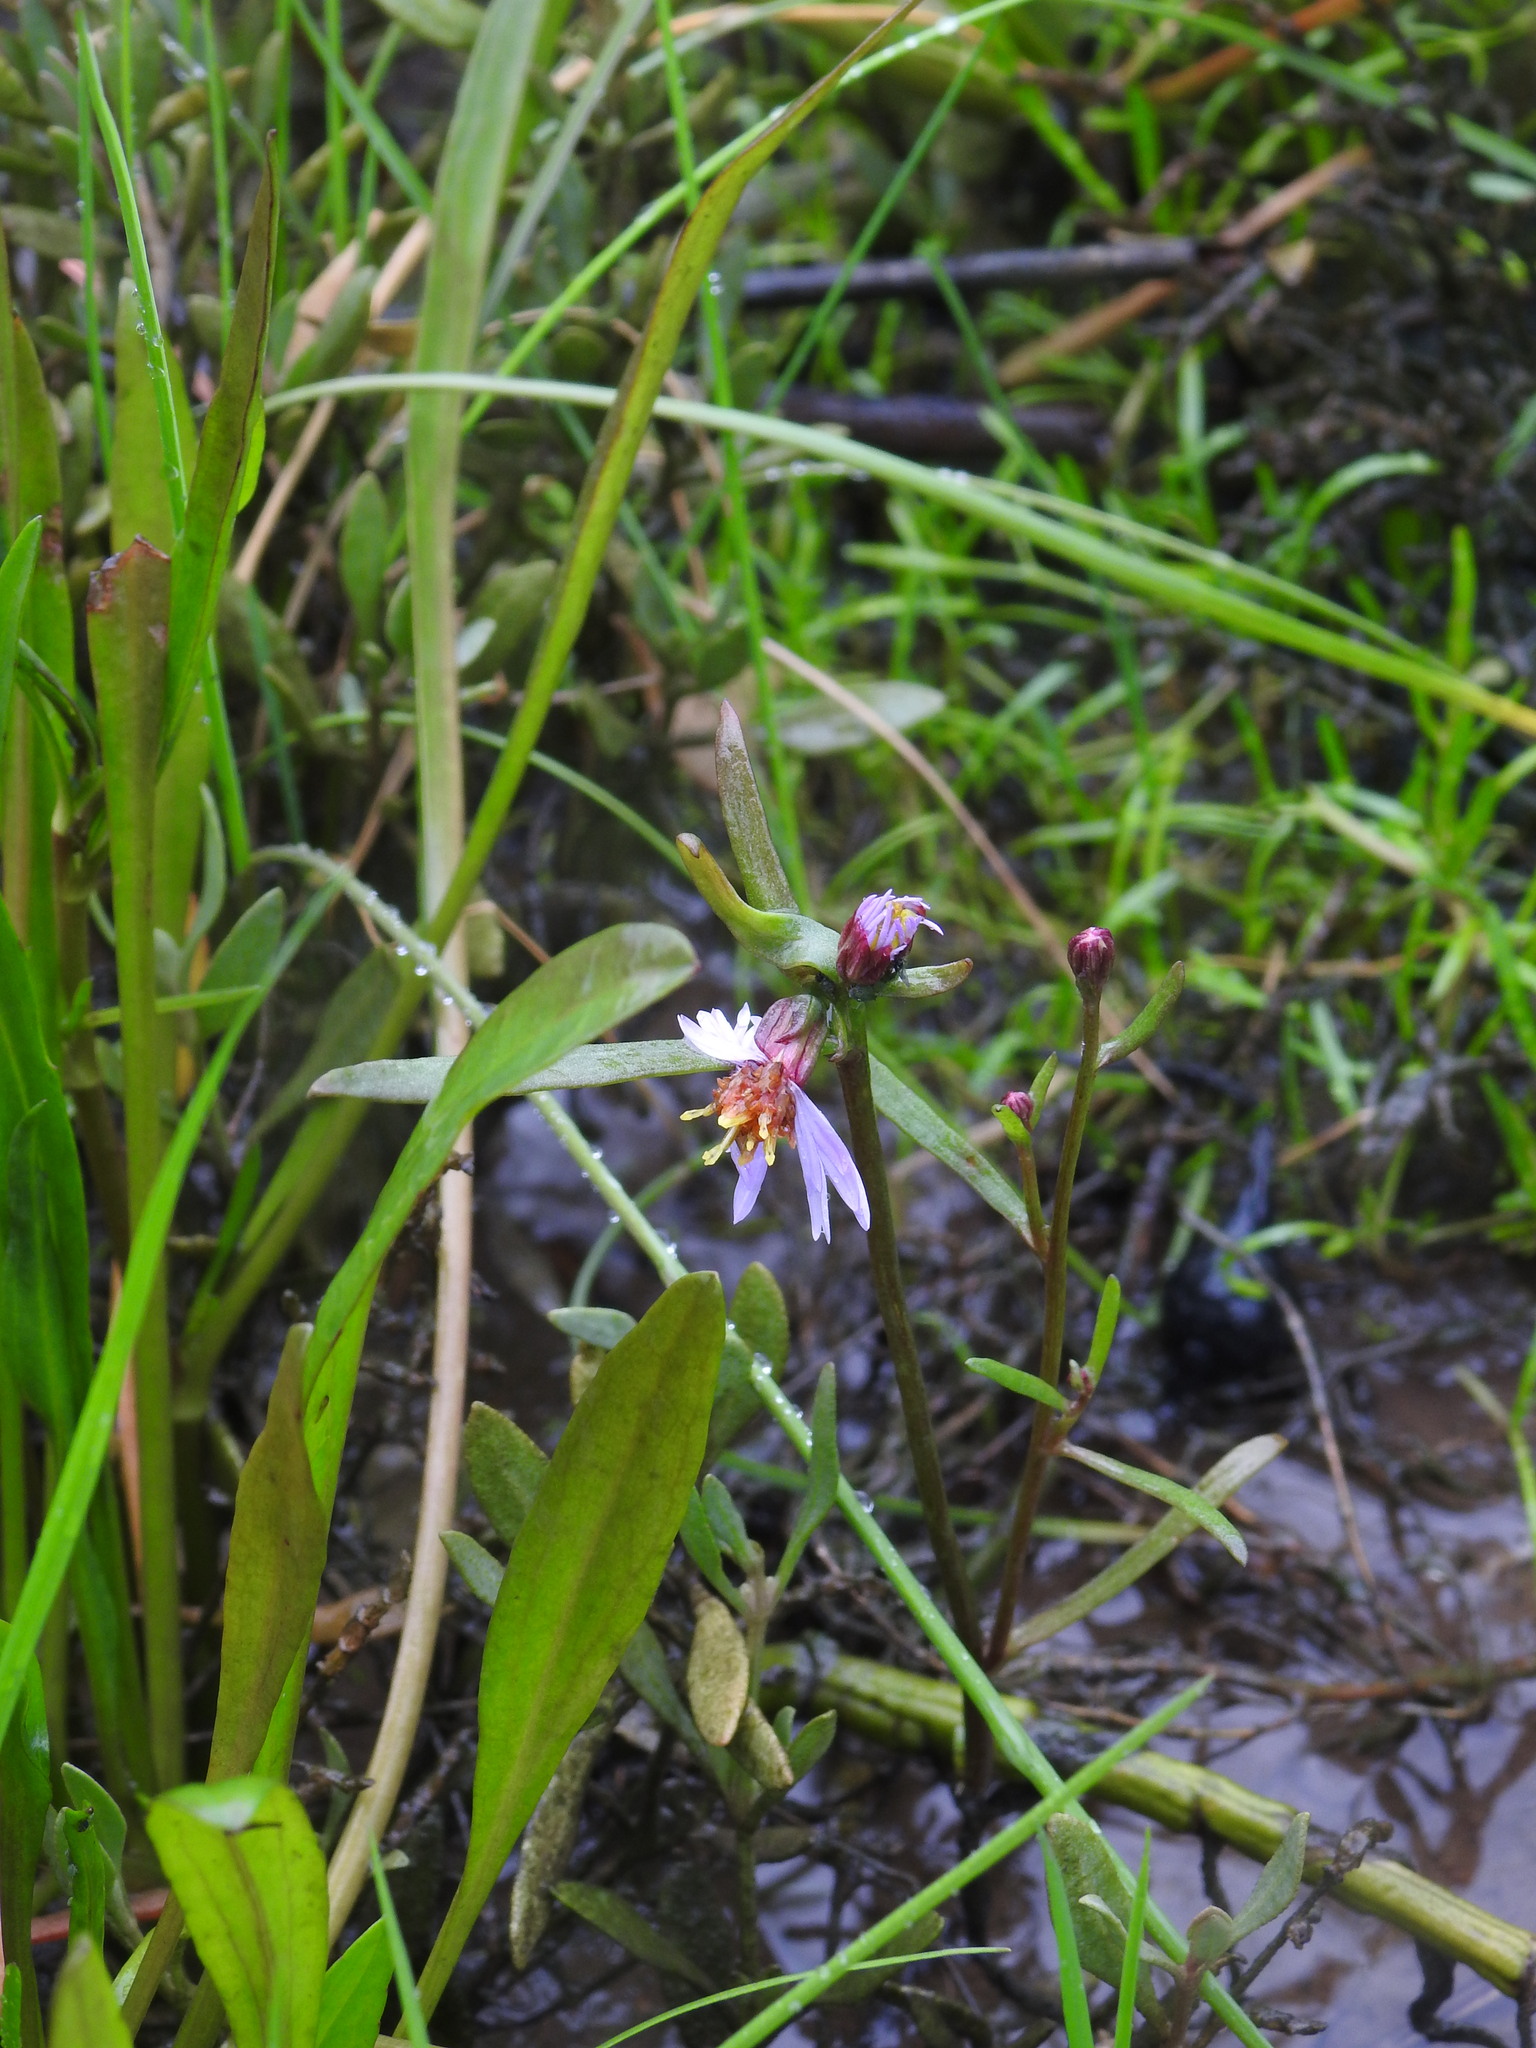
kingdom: Plantae
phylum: Tracheophyta
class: Magnoliopsida
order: Asterales
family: Asteraceae
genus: Tripolium
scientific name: Tripolium pannonicum
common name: Sea aster
